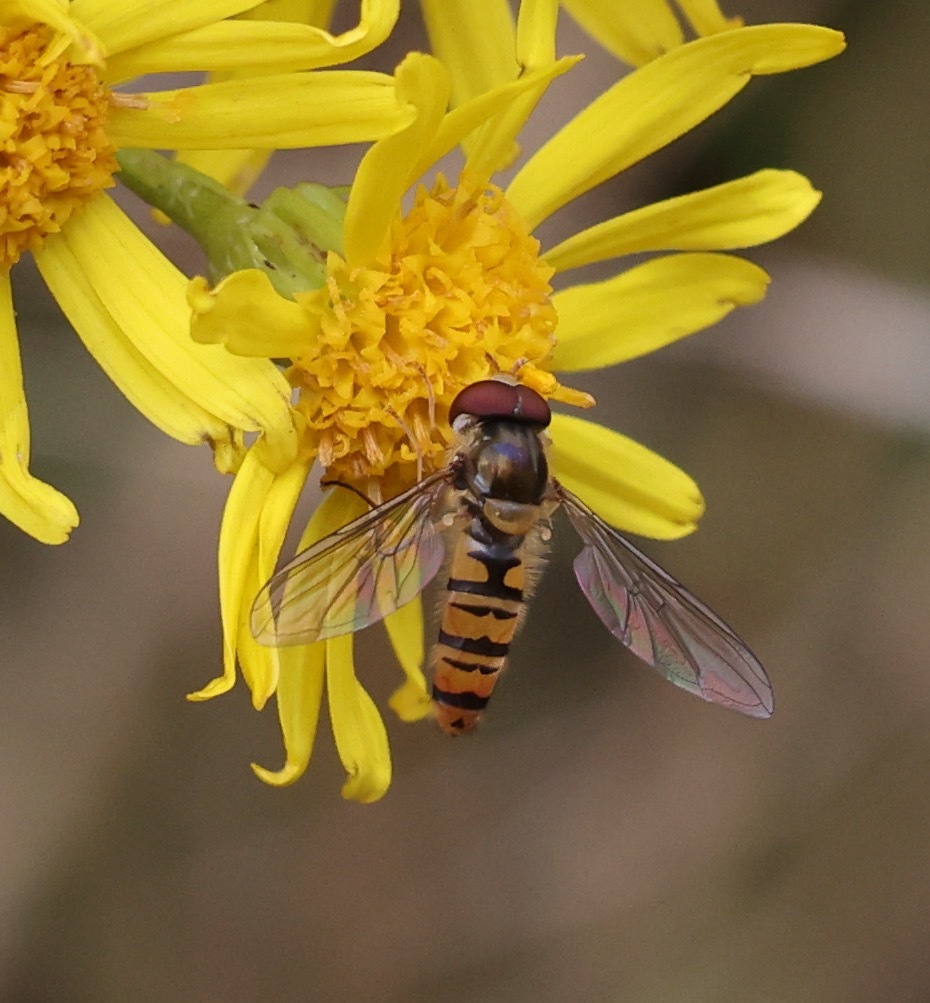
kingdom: Animalia
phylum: Arthropoda
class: Insecta
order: Diptera
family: Syrphidae
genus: Episyrphus
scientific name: Episyrphus balteatus
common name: Marmalade hoverfly
